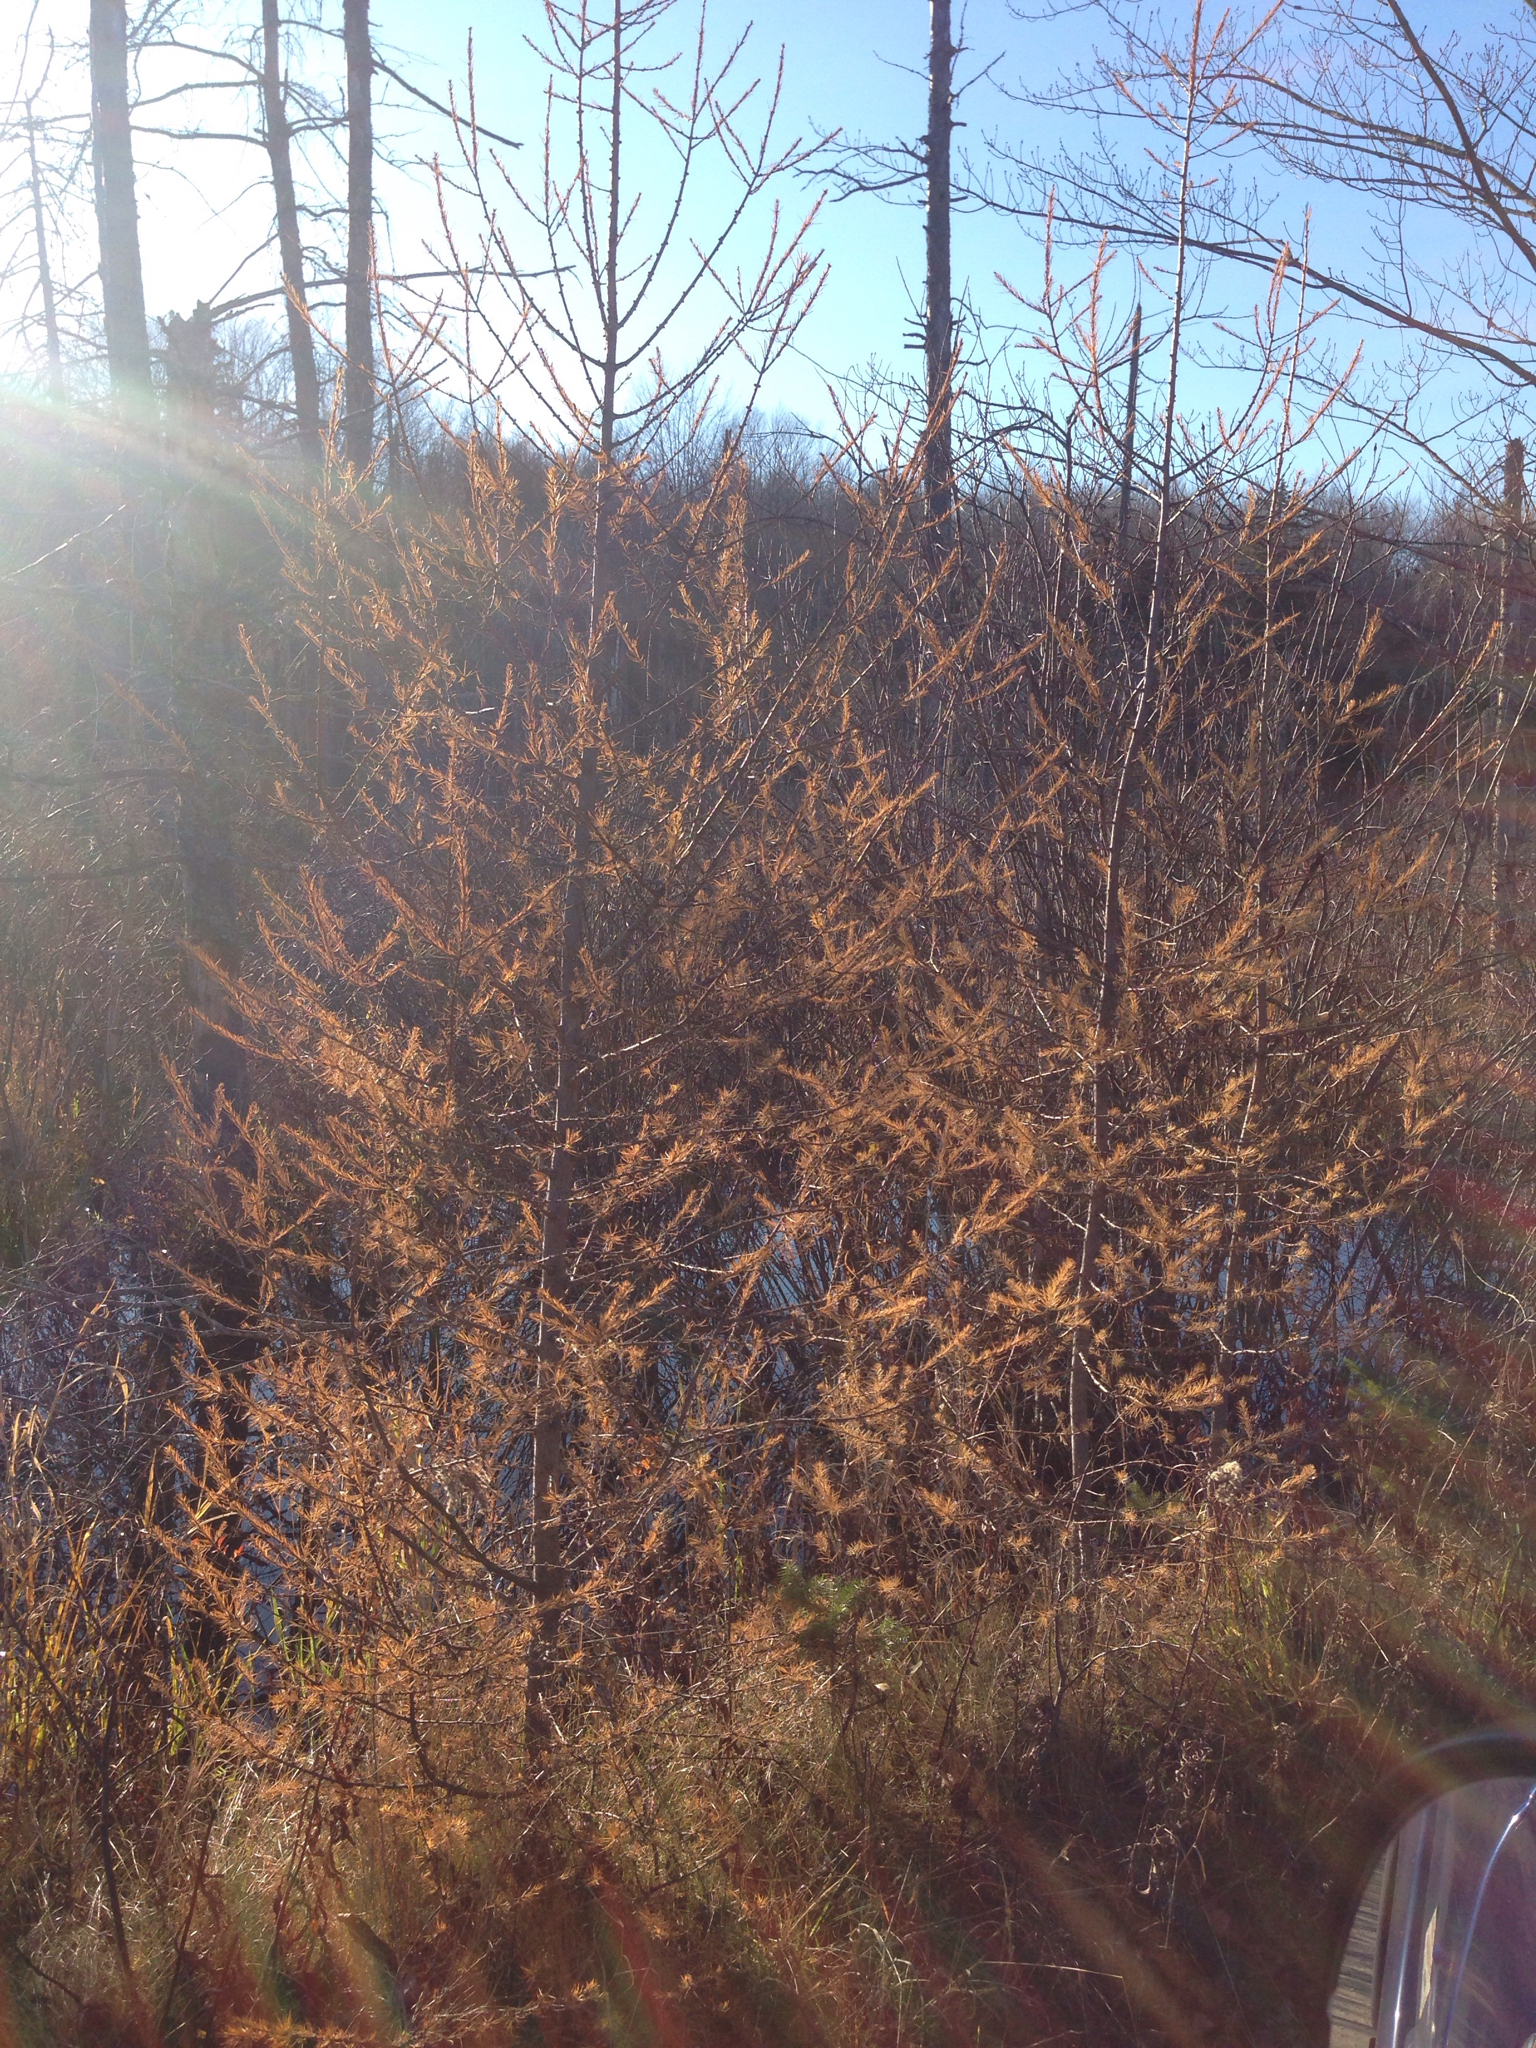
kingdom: Plantae
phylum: Tracheophyta
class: Pinopsida
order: Pinales
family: Pinaceae
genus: Larix
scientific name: Larix laricina
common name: American larch
